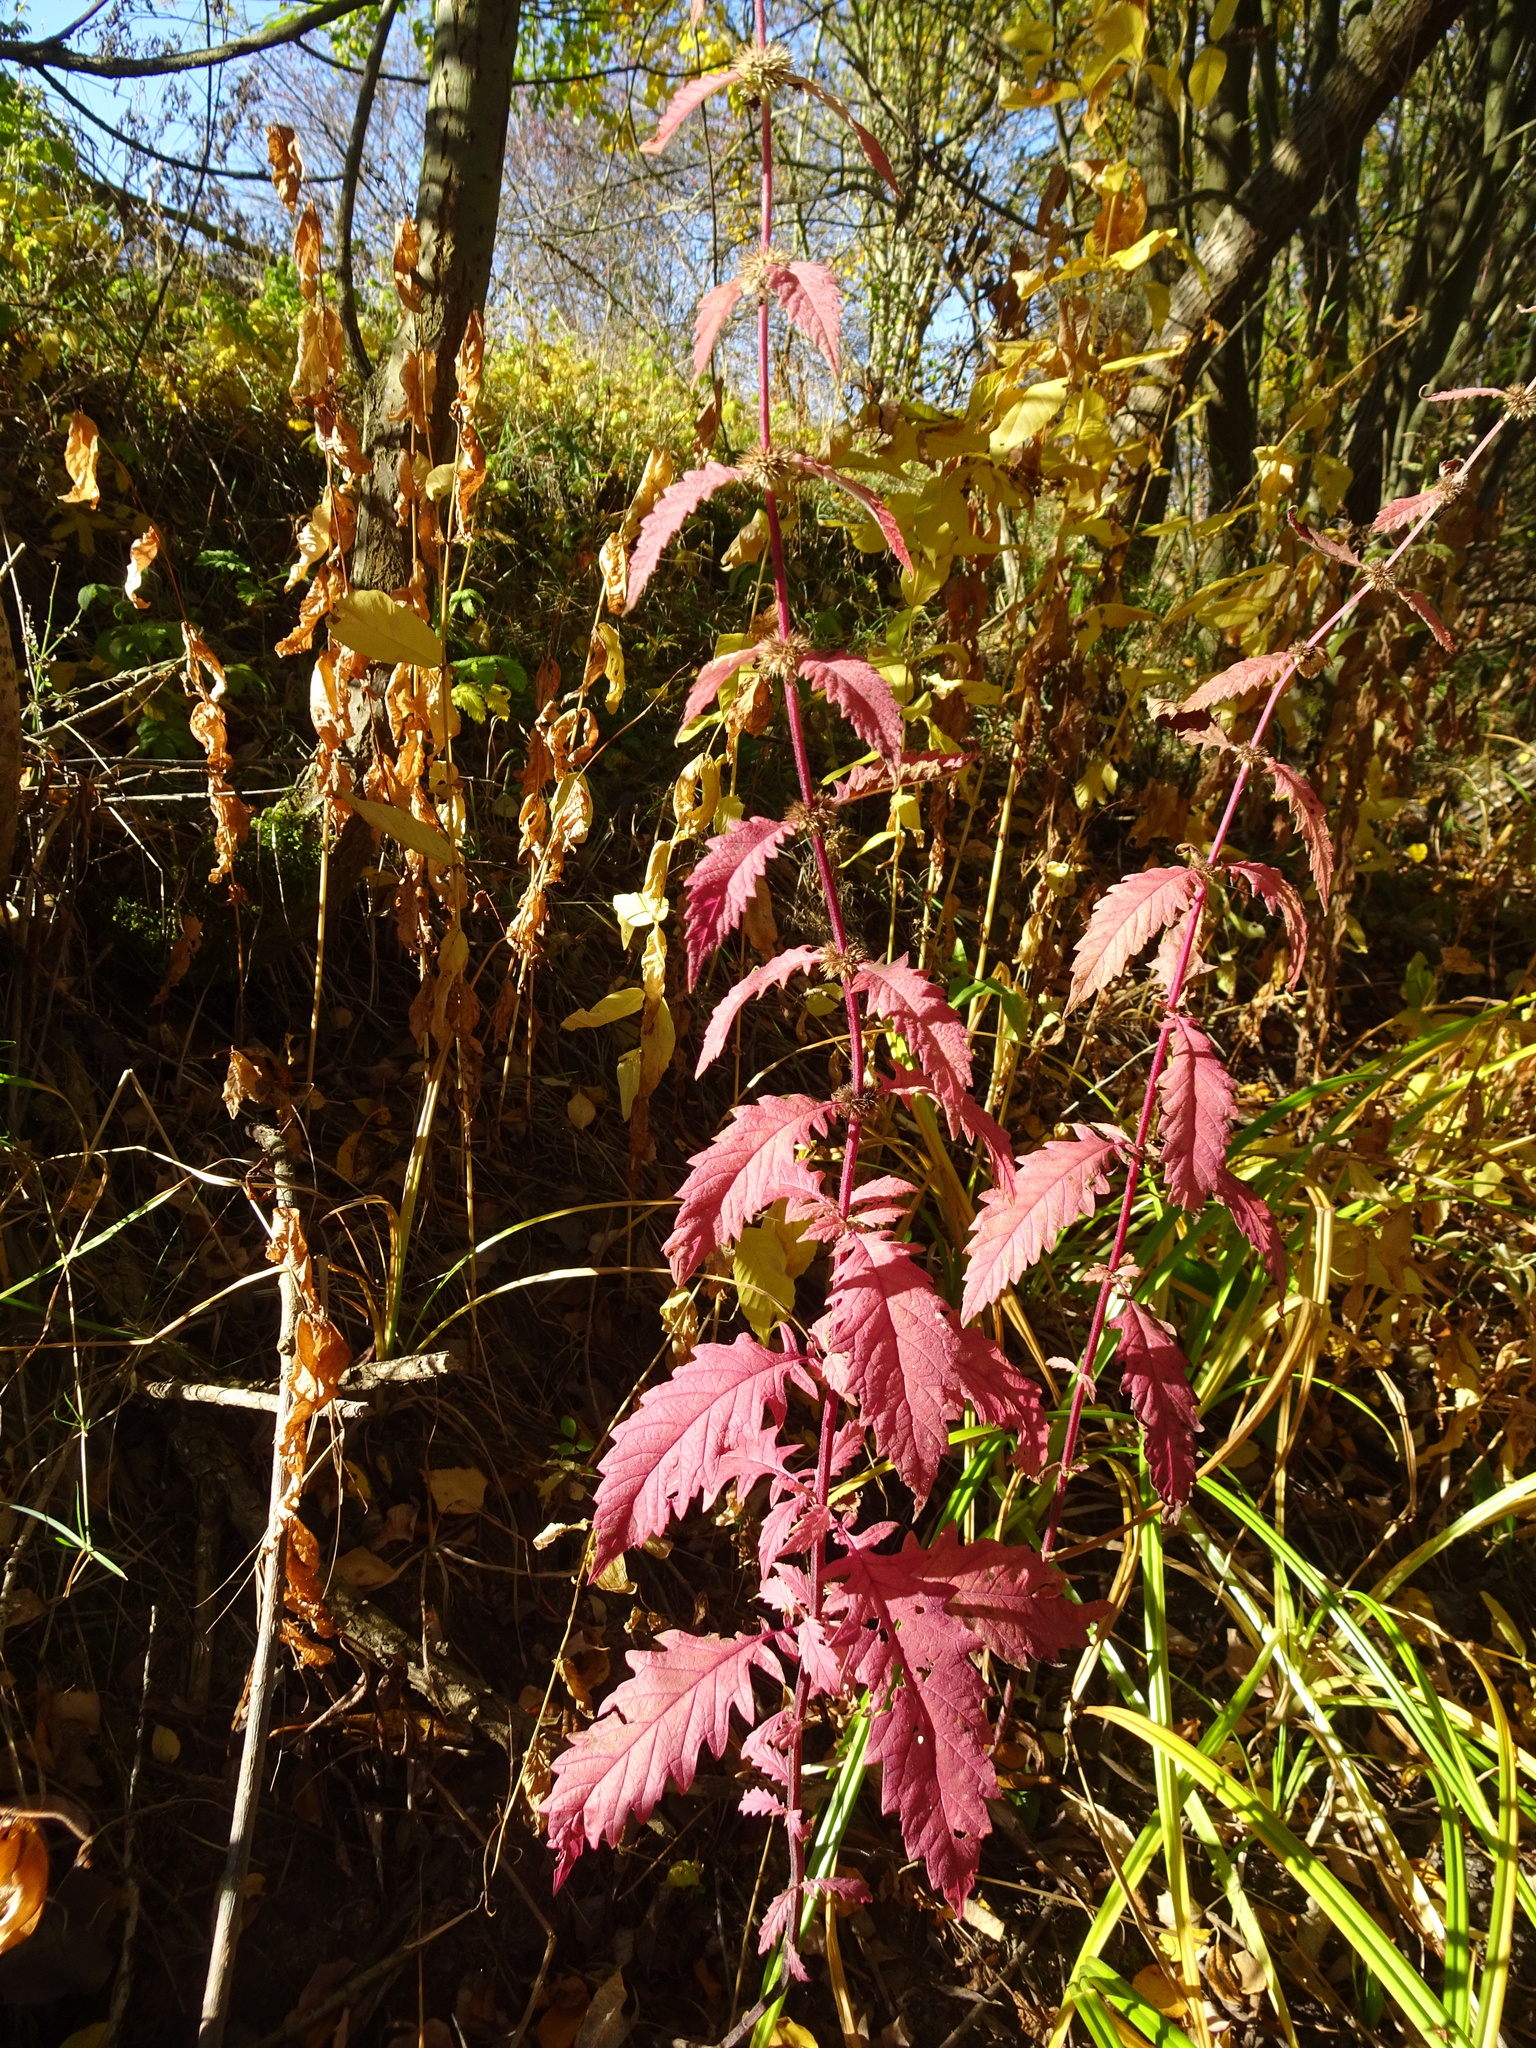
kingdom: Plantae
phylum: Tracheophyta
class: Magnoliopsida
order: Lamiales
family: Lamiaceae
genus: Lycopus
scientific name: Lycopus europaeus
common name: European bugleweed
